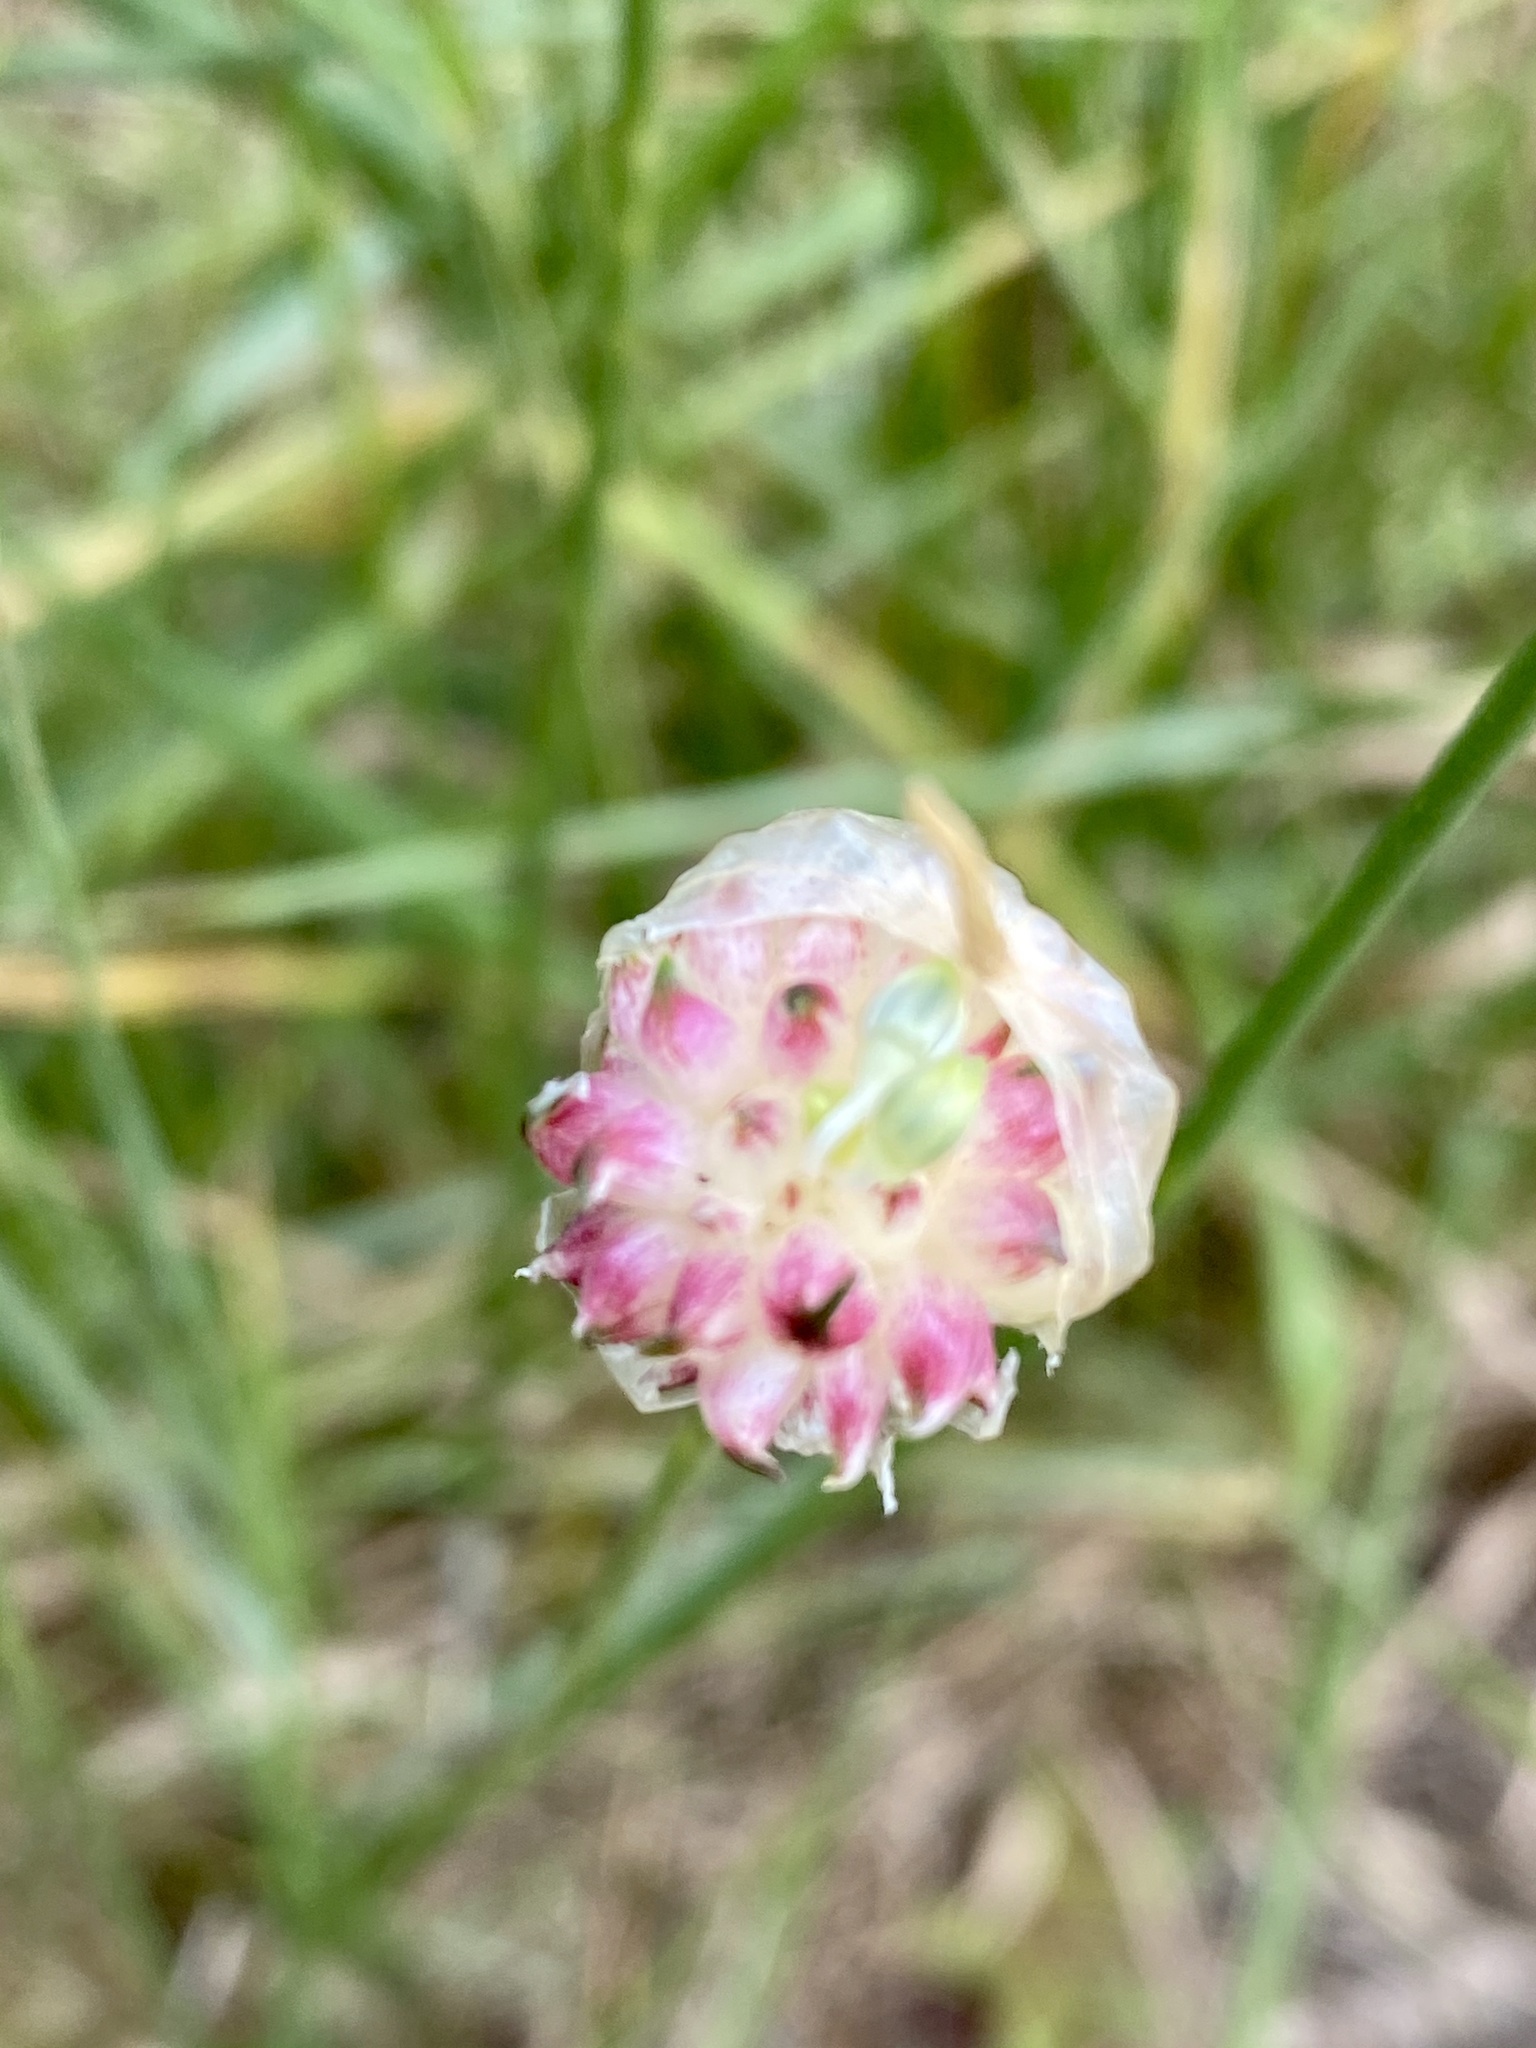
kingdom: Plantae
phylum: Tracheophyta
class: Liliopsida
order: Asparagales
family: Amaryllidaceae
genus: Allium
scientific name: Allium vineale
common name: Crow garlic
